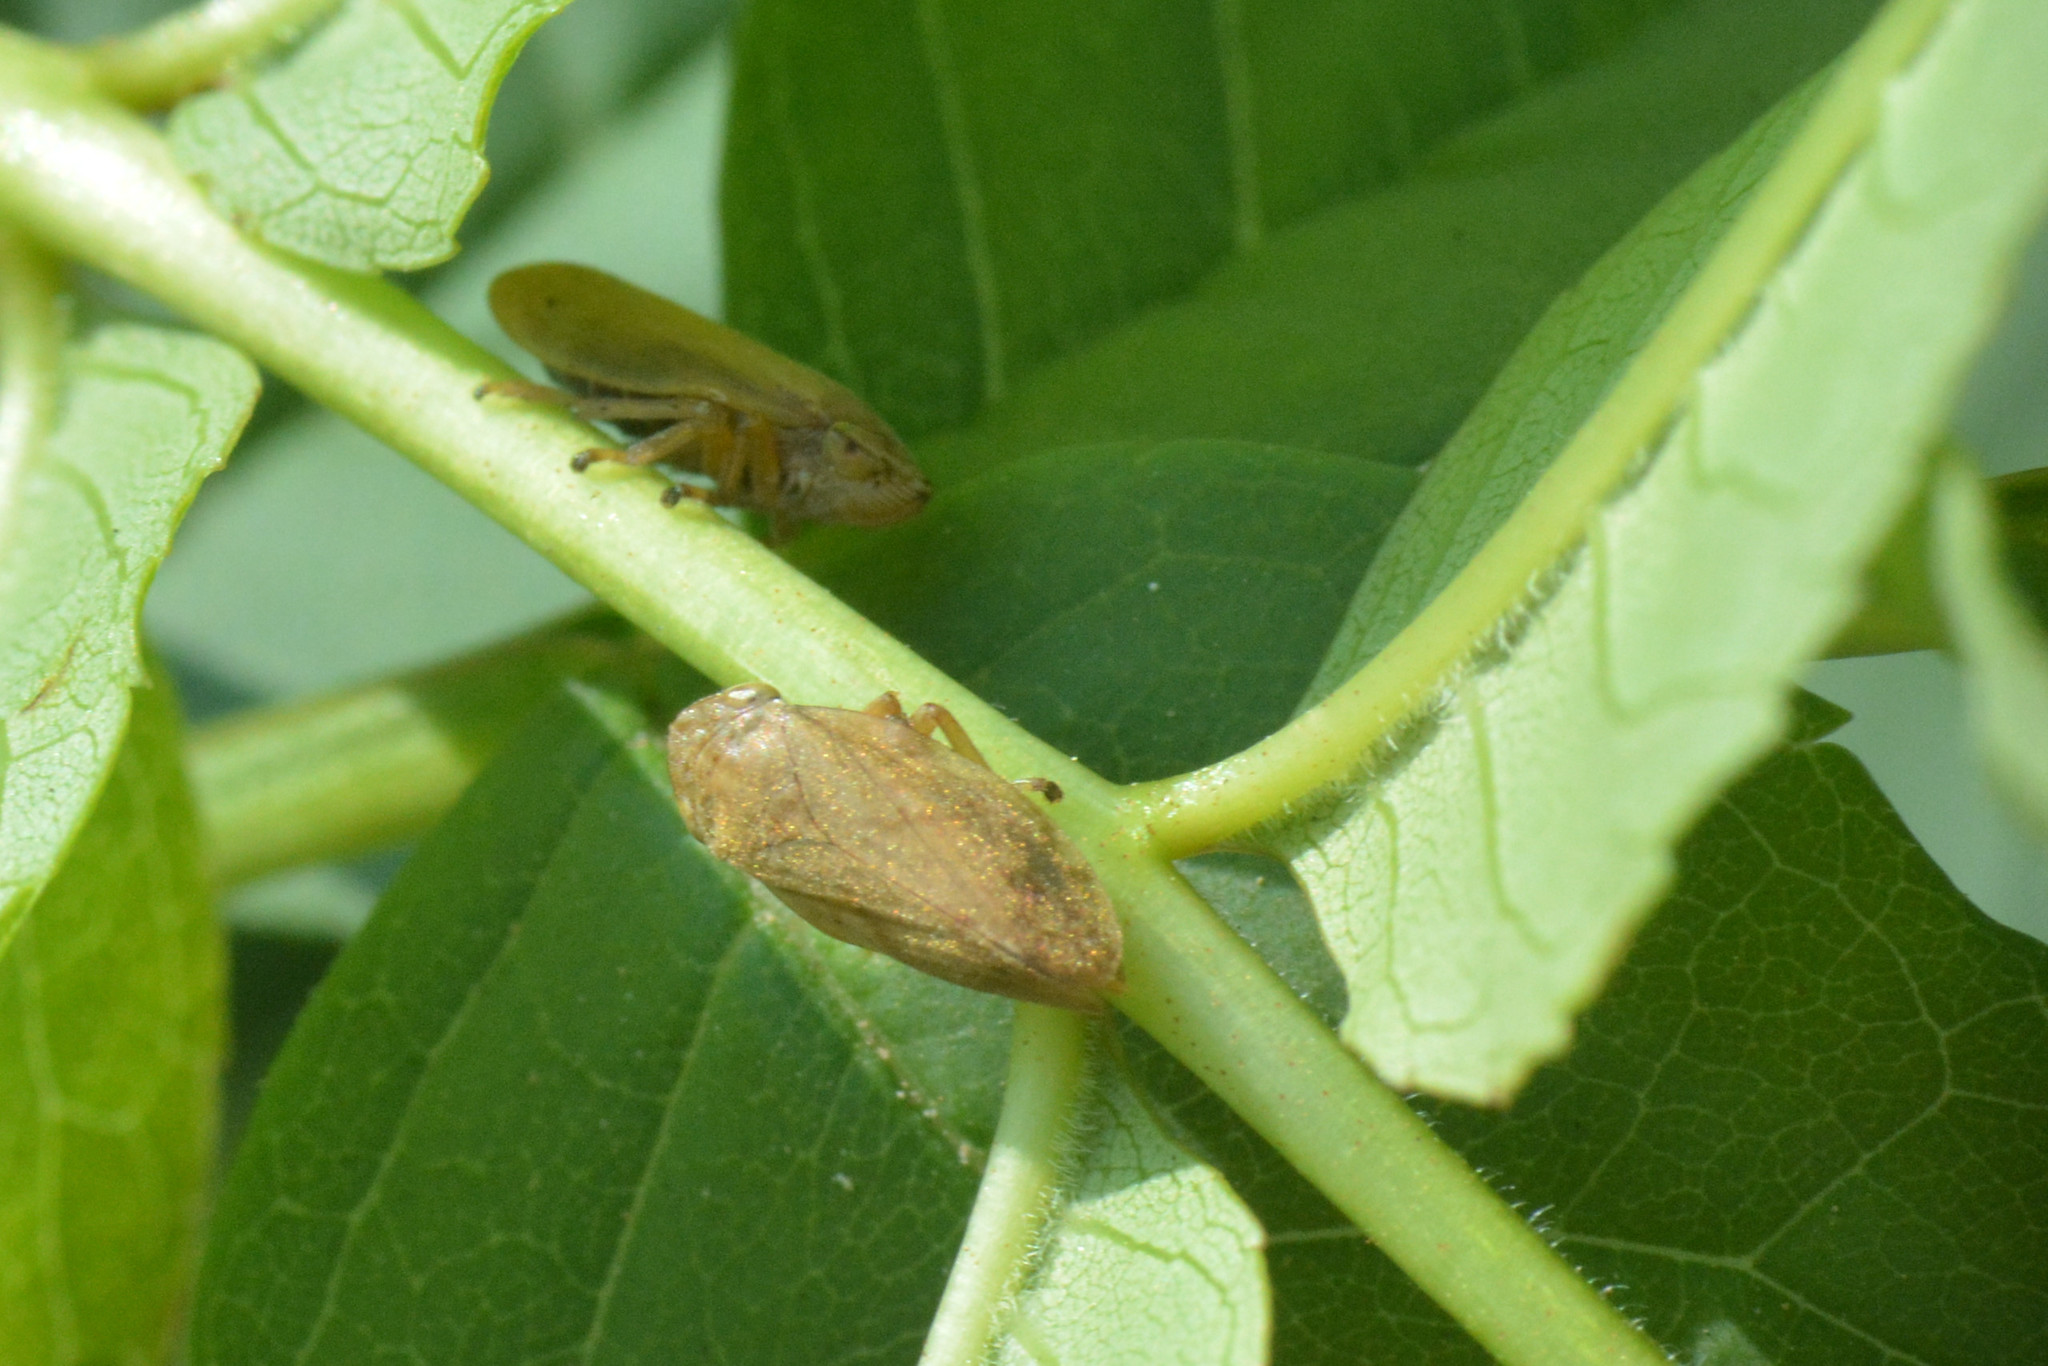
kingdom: Animalia
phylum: Arthropoda
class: Insecta
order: Hemiptera
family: Aphrophoridae
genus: Philaenus
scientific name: Philaenus spumarius
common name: Meadow spittlebug
